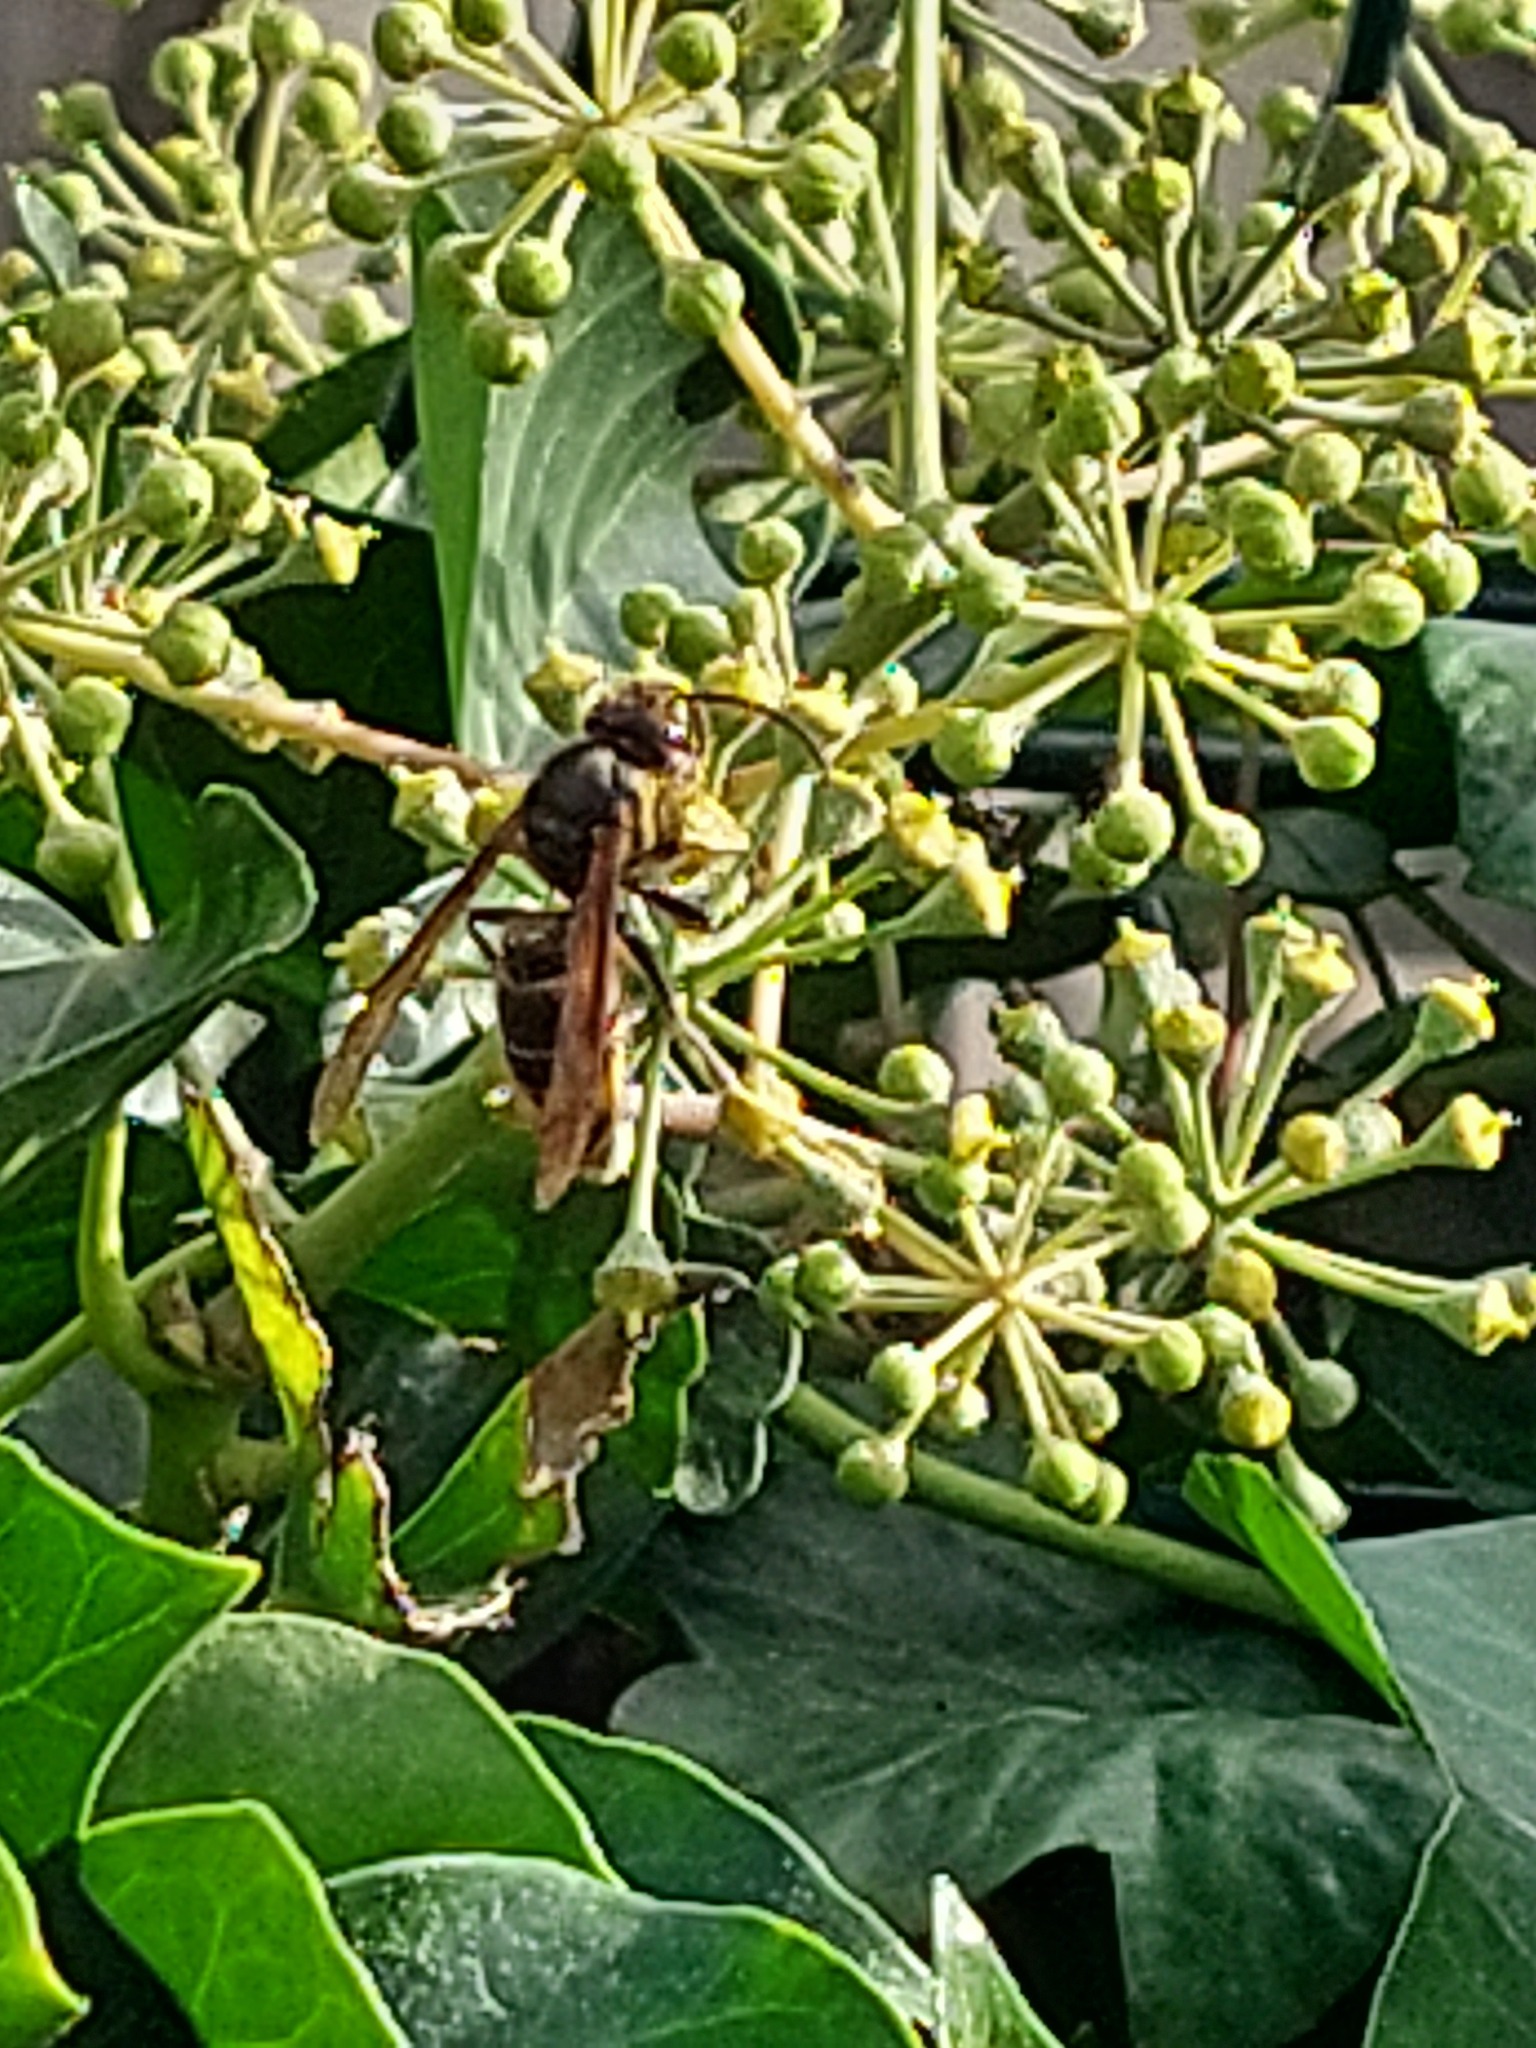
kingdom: Animalia
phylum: Arthropoda
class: Insecta
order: Hymenoptera
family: Vespidae
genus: Vespa
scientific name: Vespa velutina
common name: Asian hornet
